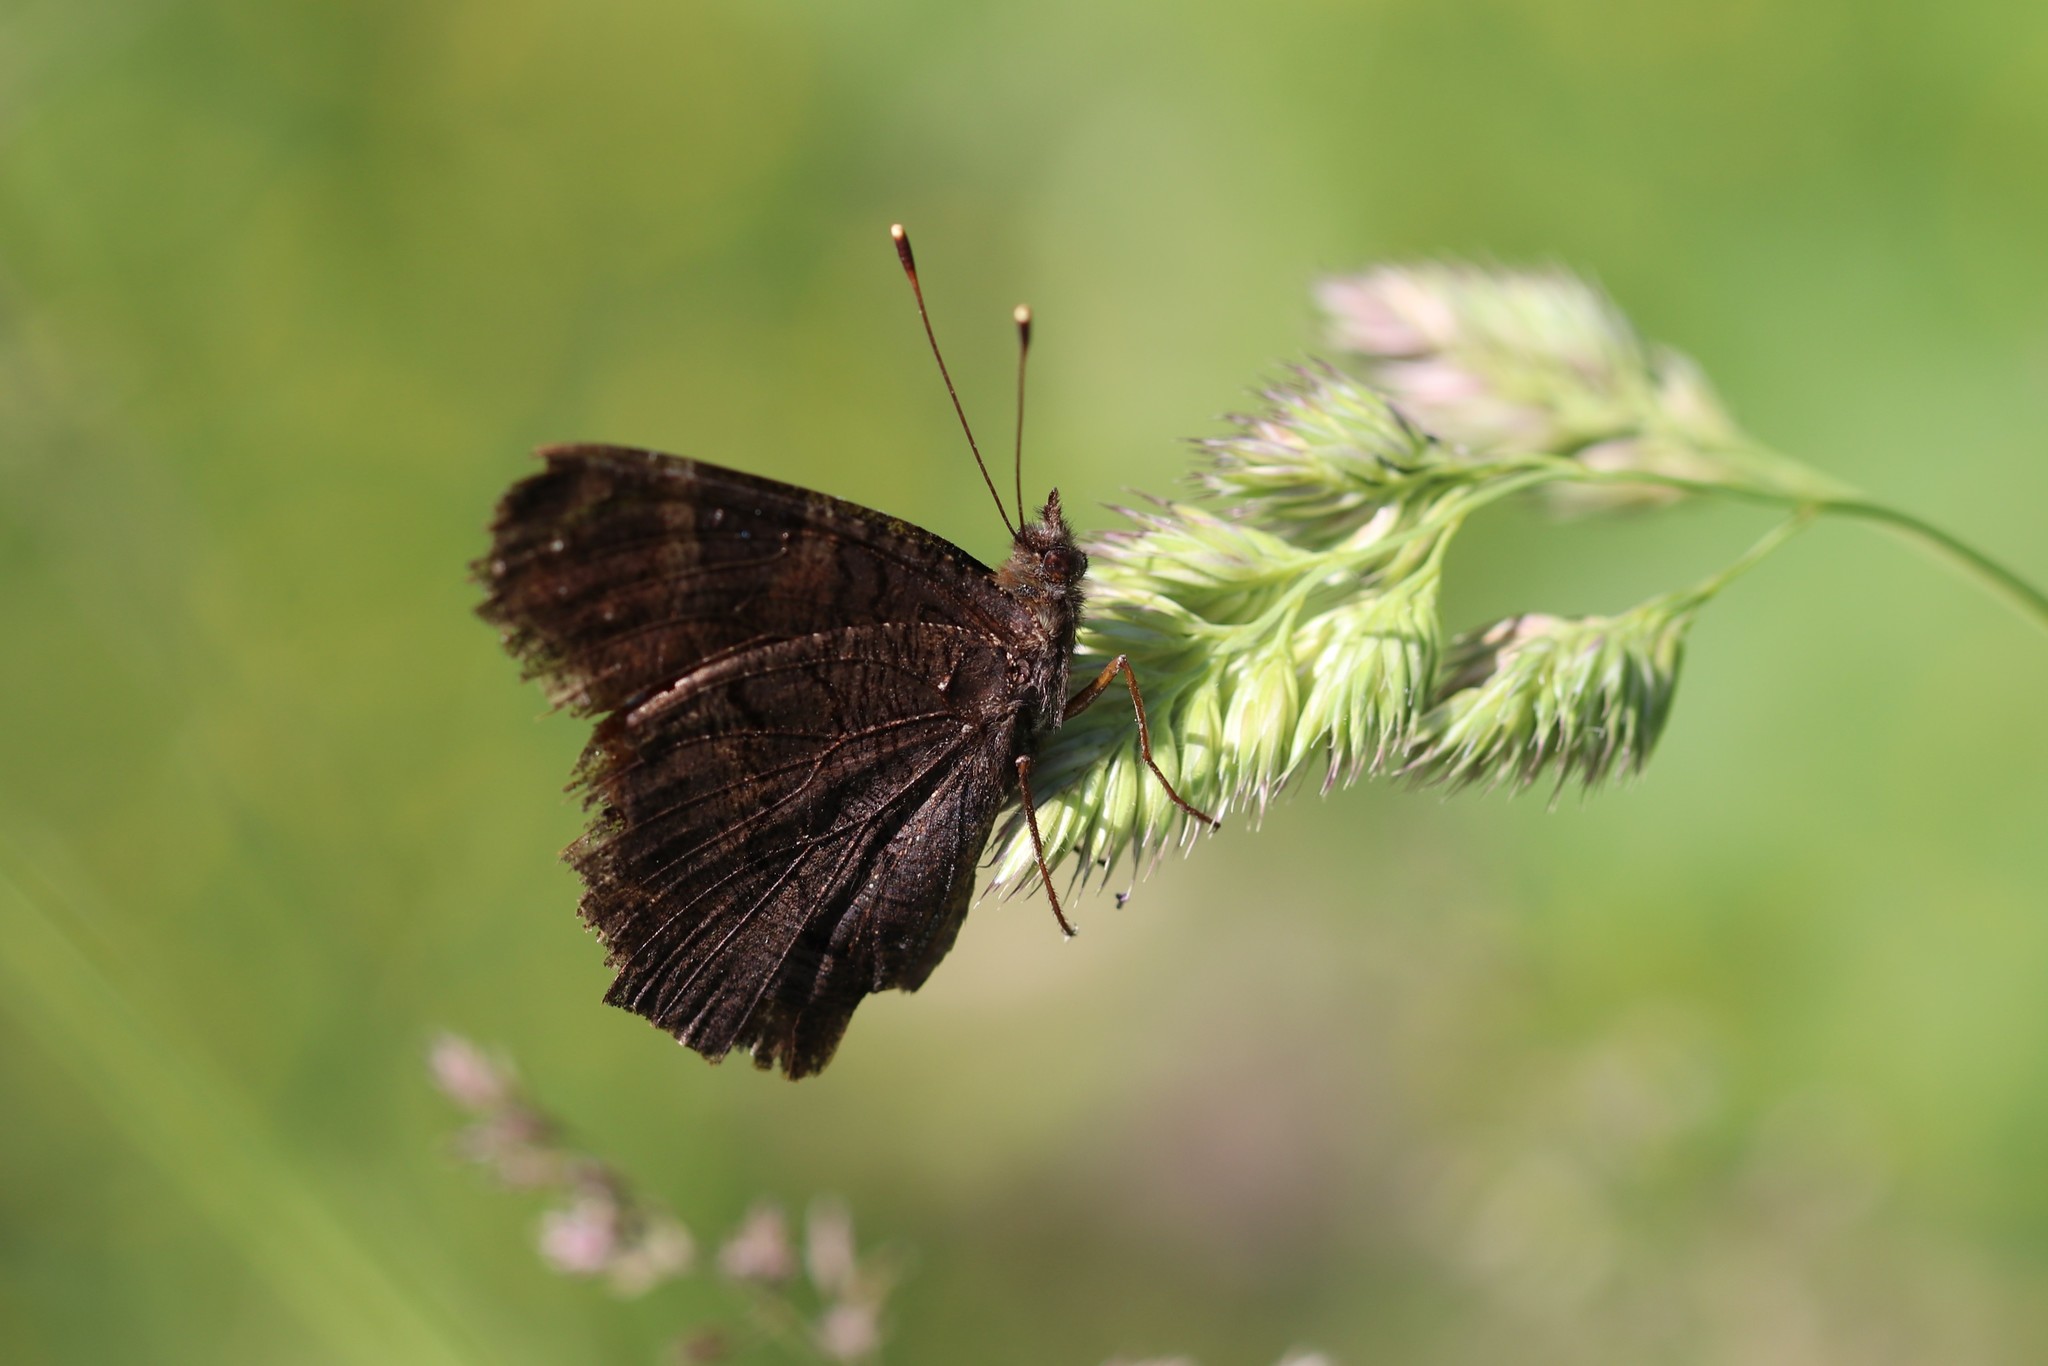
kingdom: Animalia
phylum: Arthropoda
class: Insecta
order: Lepidoptera
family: Nymphalidae
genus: Aglais
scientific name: Aglais io
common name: Peacock
